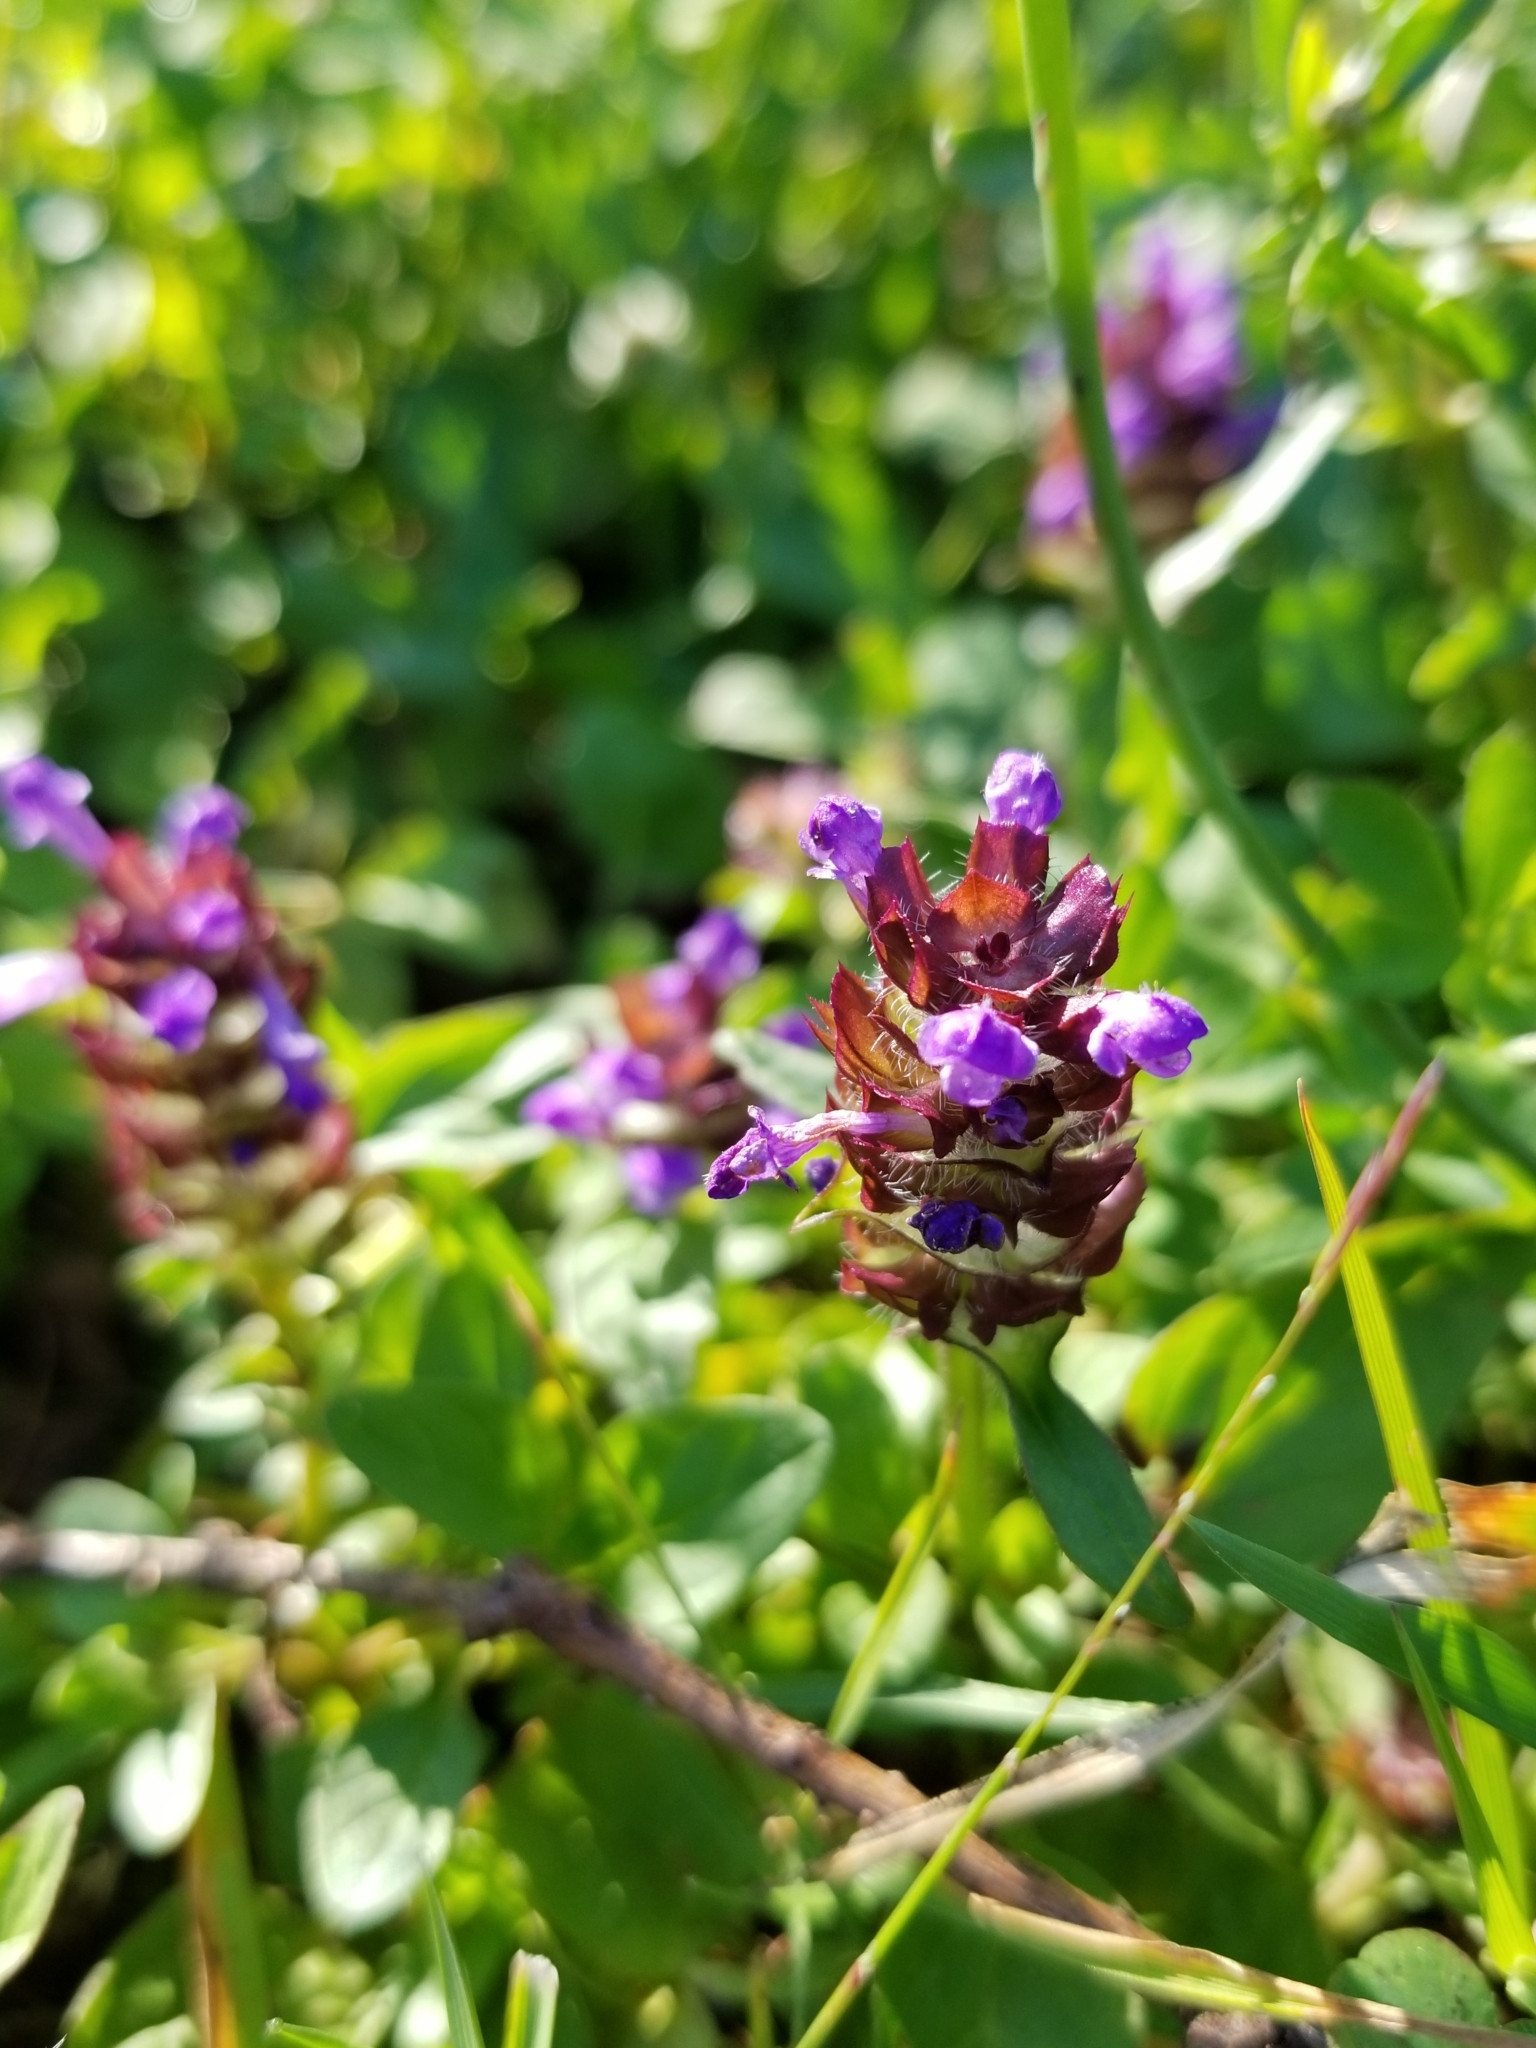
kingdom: Plantae
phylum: Tracheophyta
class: Magnoliopsida
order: Lamiales
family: Lamiaceae
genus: Prunella
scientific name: Prunella vulgaris
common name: Heal-all
